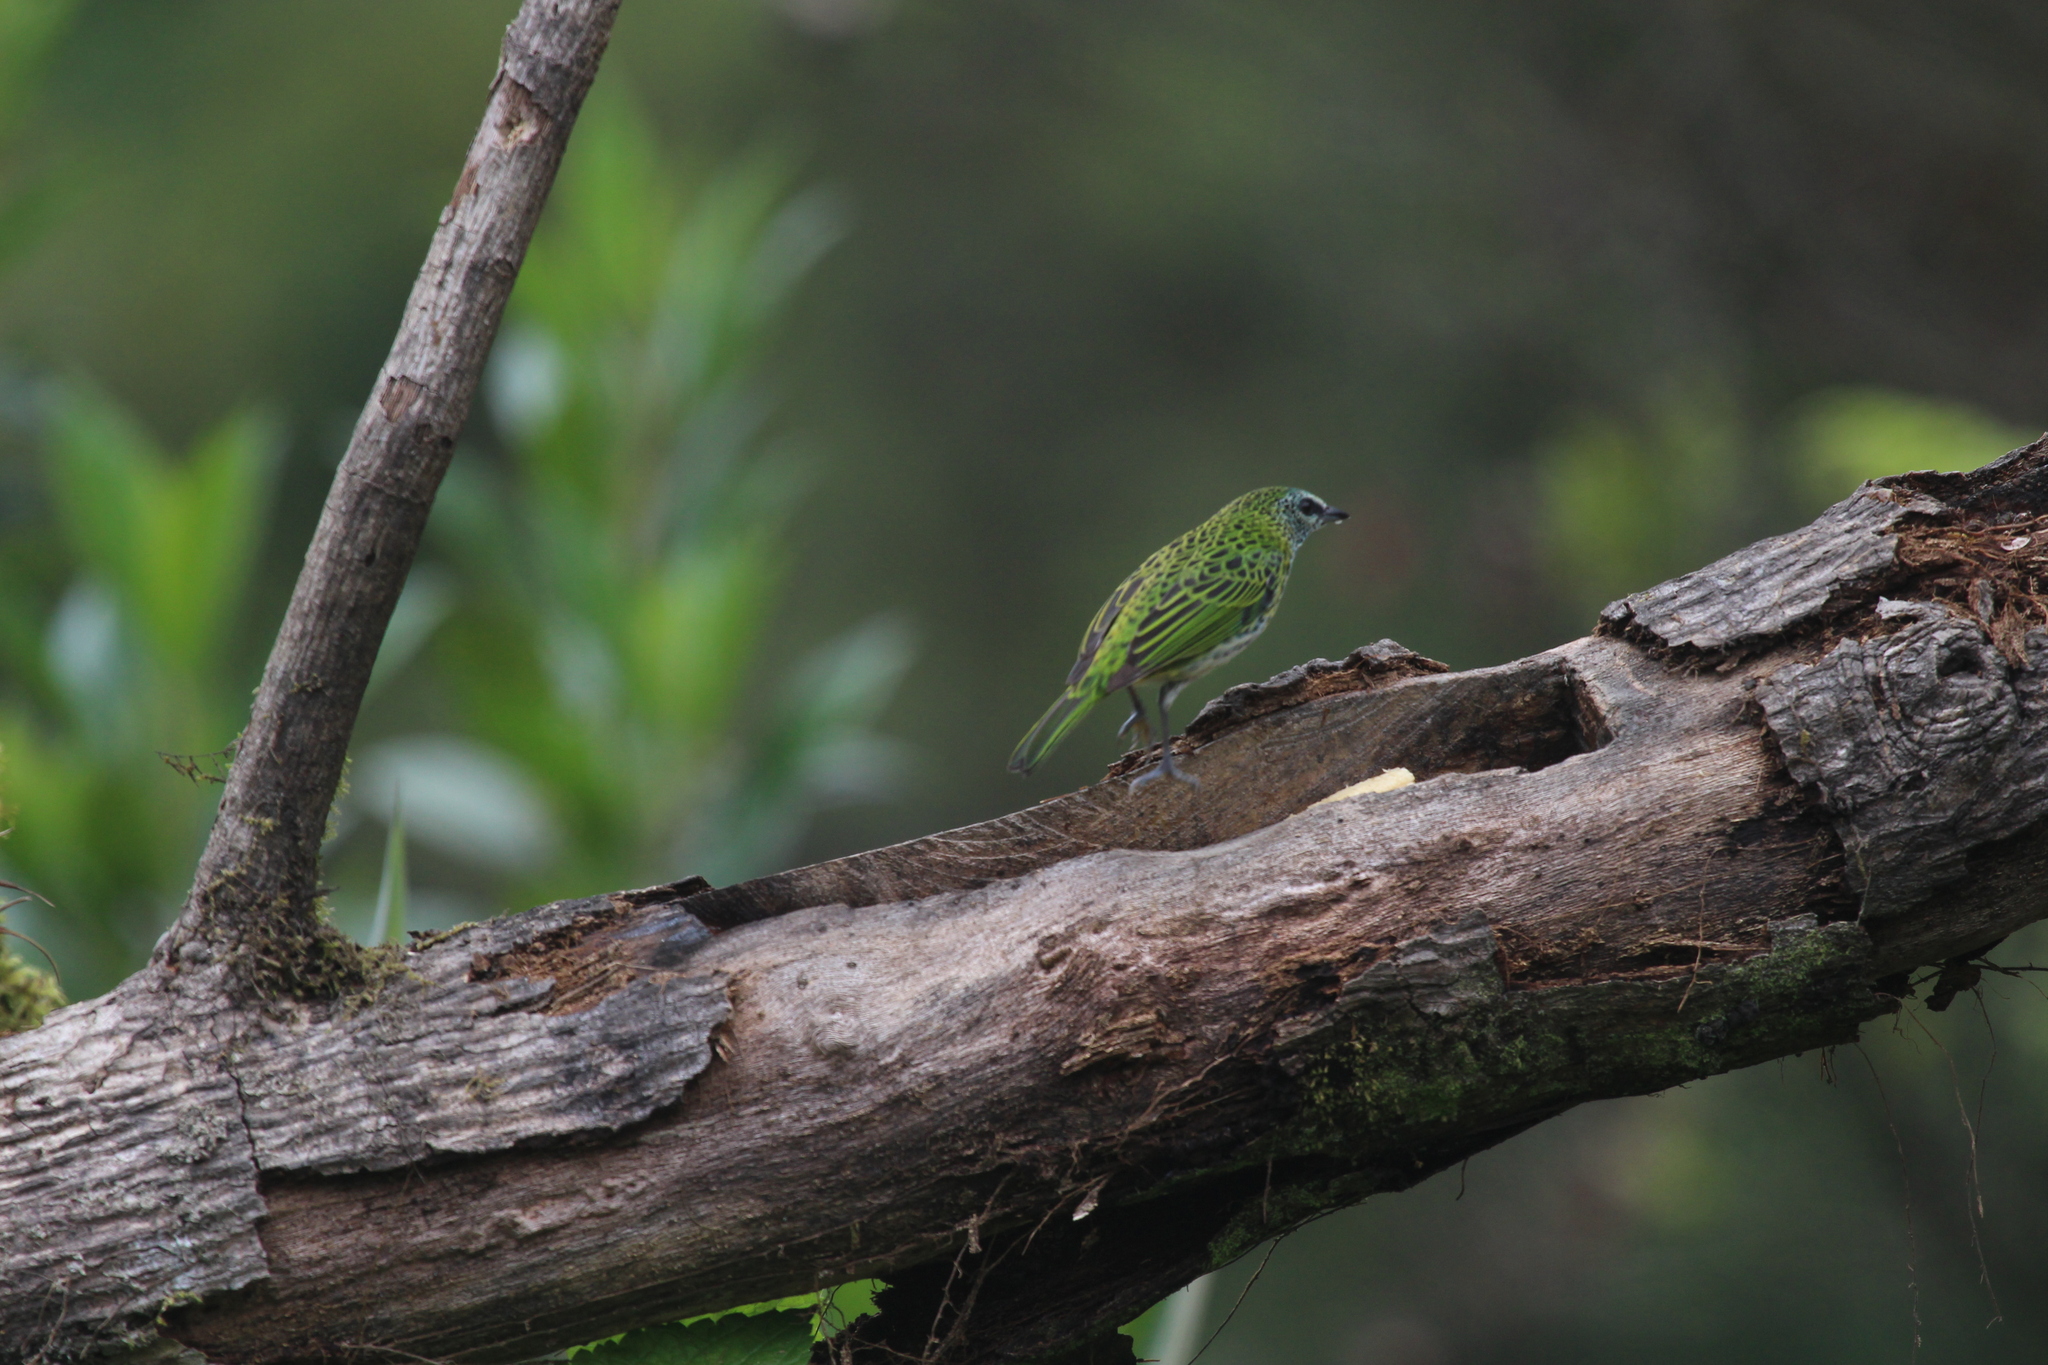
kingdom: Animalia
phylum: Chordata
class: Aves
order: Passeriformes
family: Thraupidae
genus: Ixothraupis
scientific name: Ixothraupis punctata
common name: Spotted tanager
